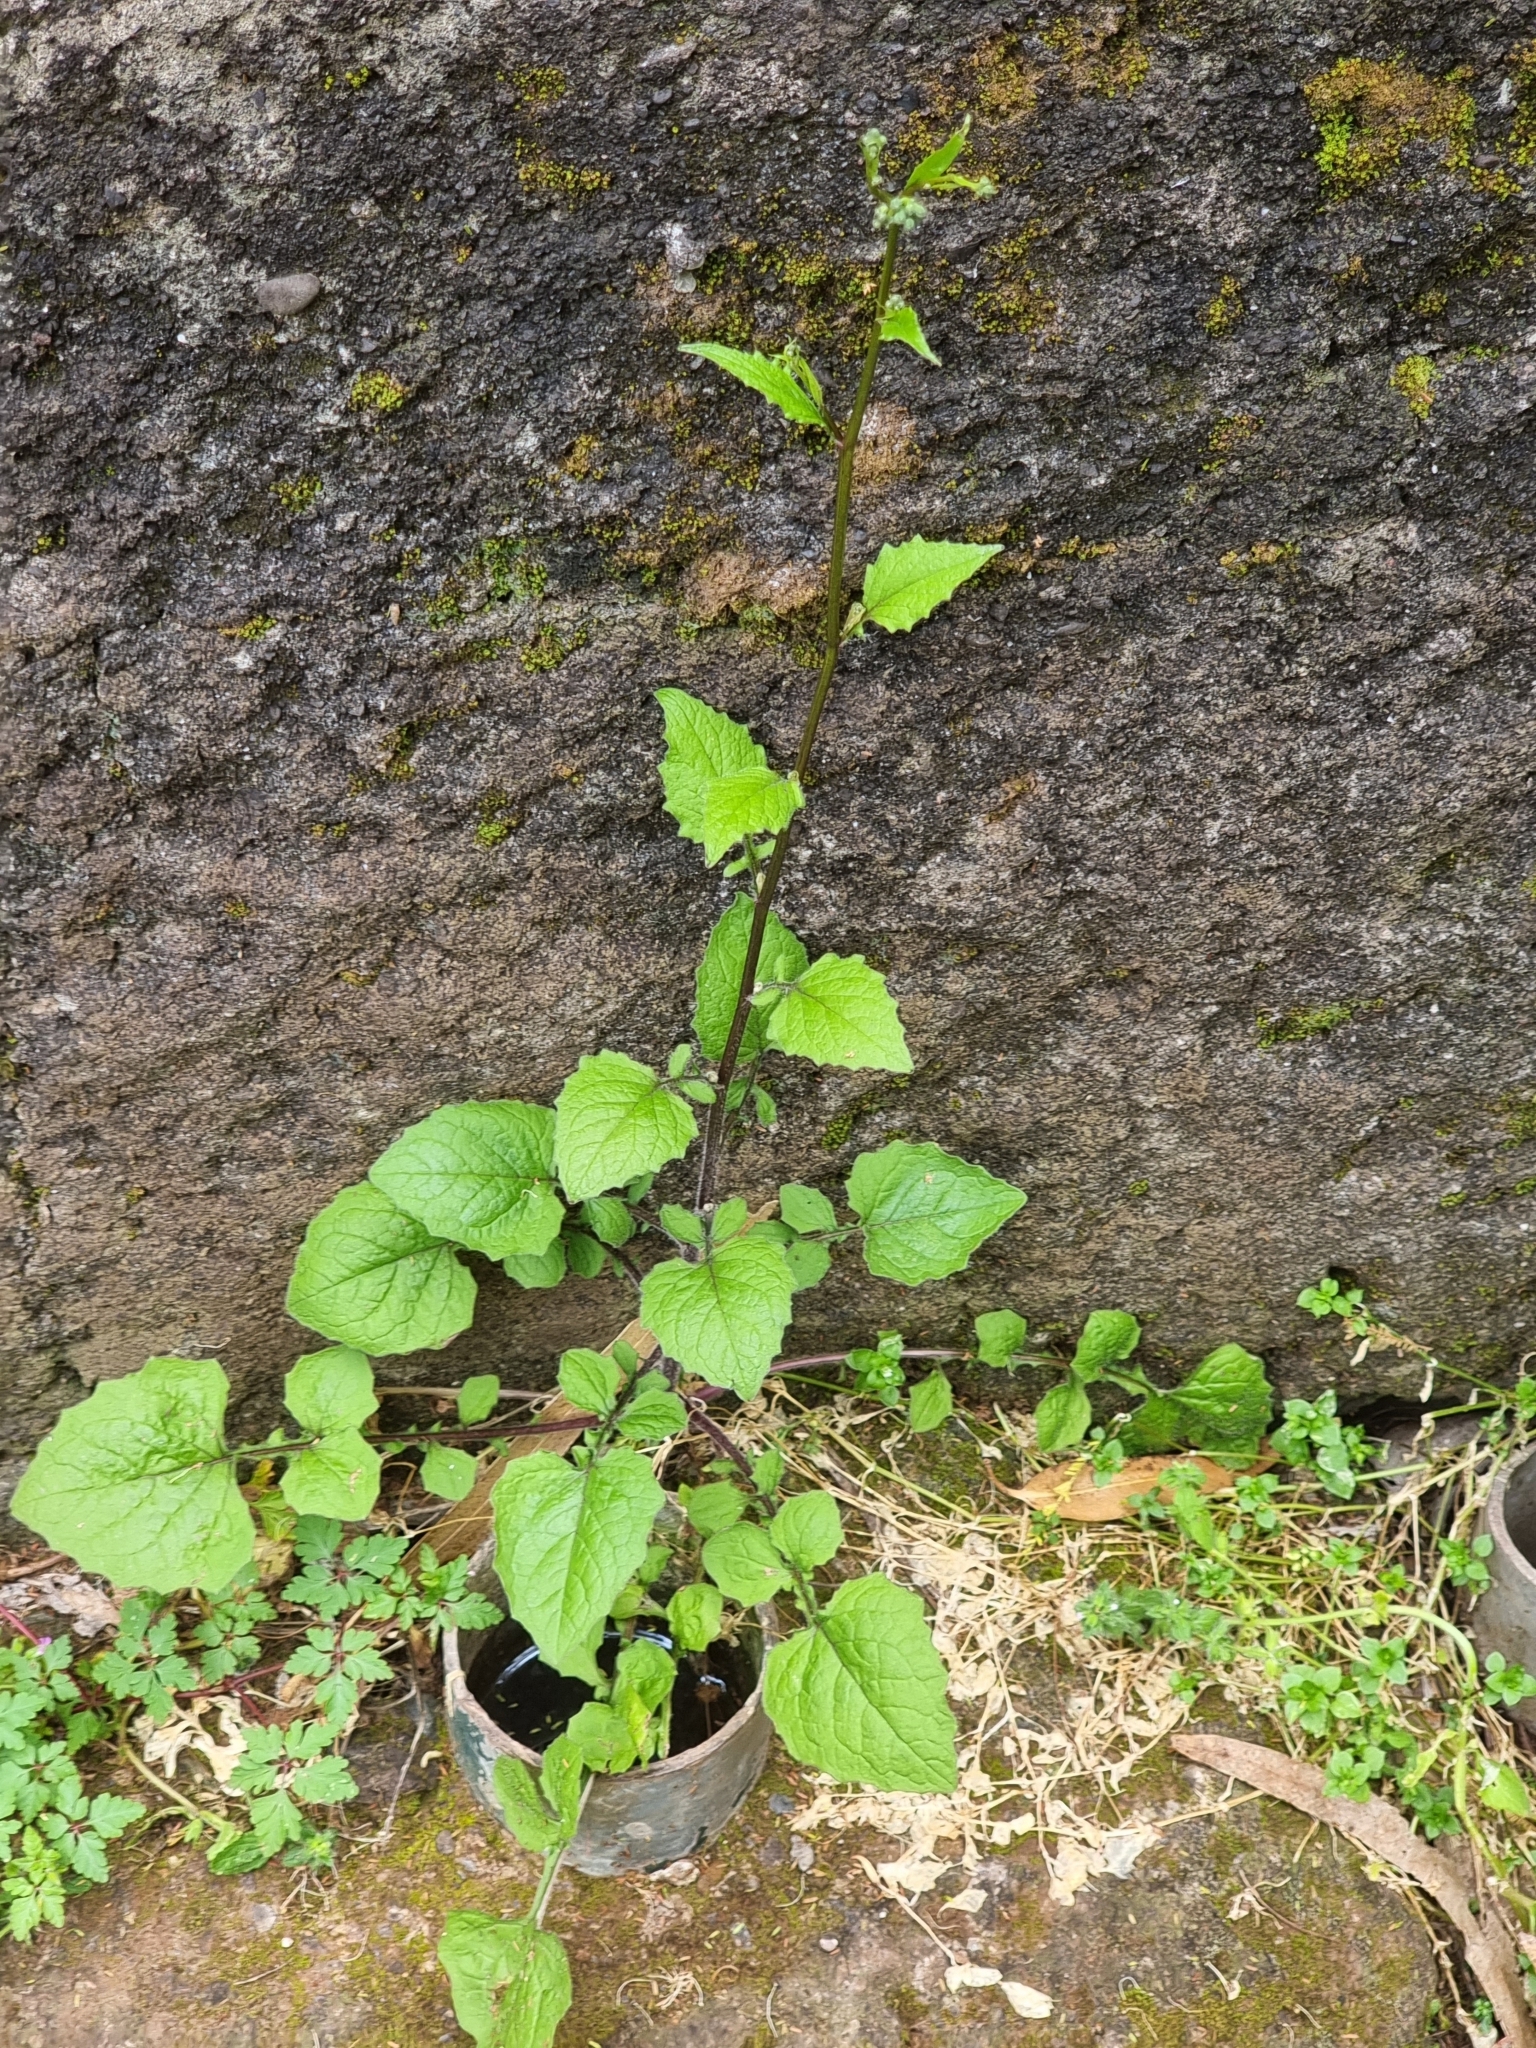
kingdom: Plantae
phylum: Tracheophyta
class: Magnoliopsida
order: Asterales
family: Asteraceae
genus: Lapsana
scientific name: Lapsana communis
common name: Nipplewort
